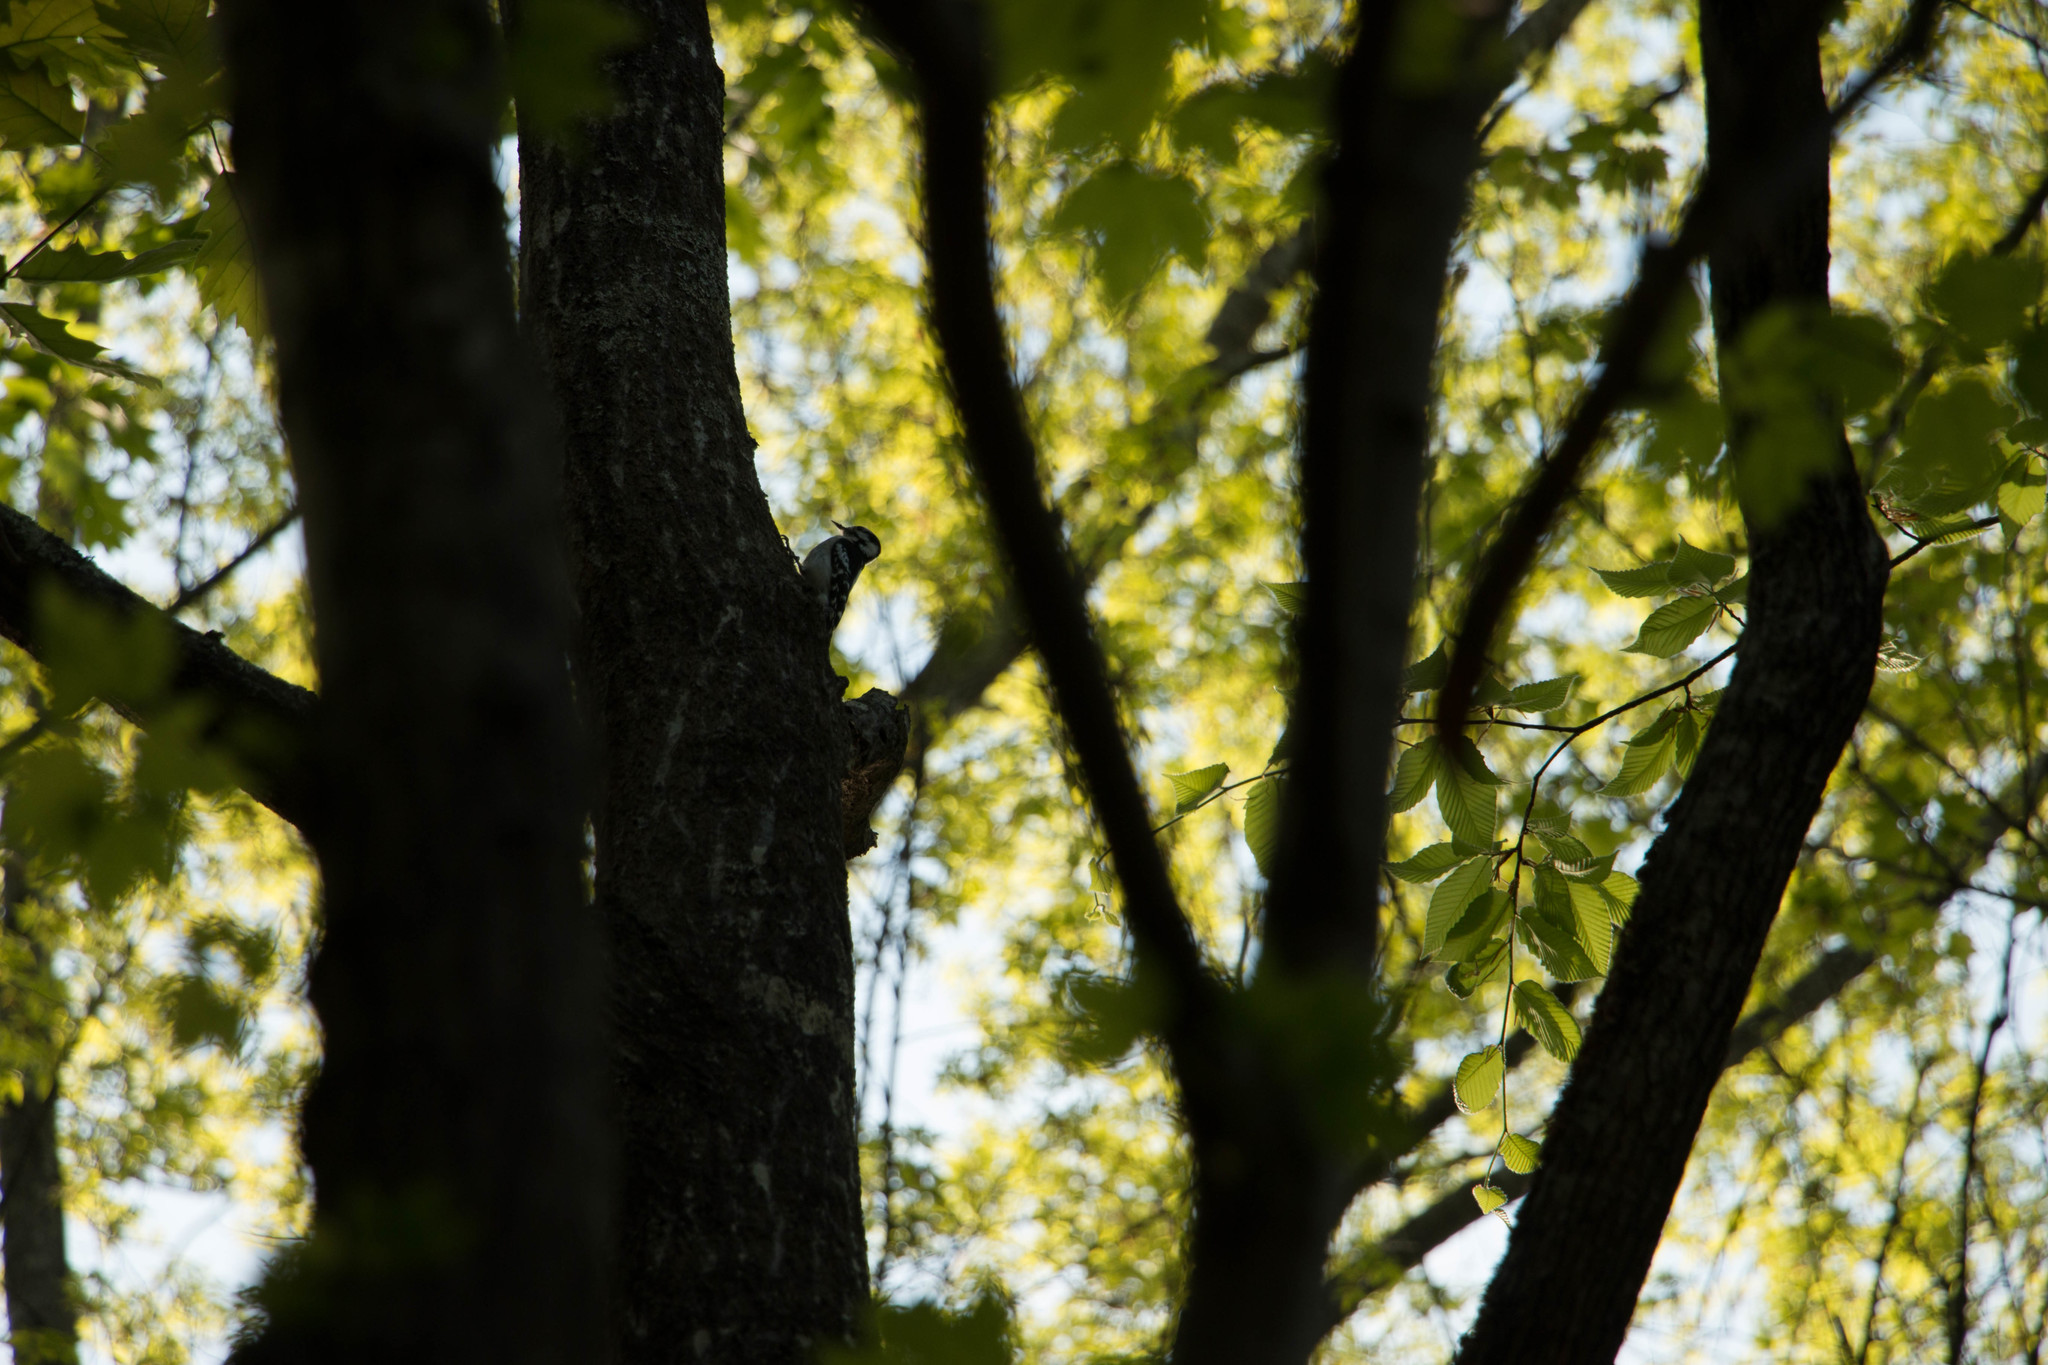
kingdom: Animalia
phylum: Chordata
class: Aves
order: Piciformes
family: Picidae
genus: Leuconotopicus
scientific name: Leuconotopicus villosus
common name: Hairy woodpecker
